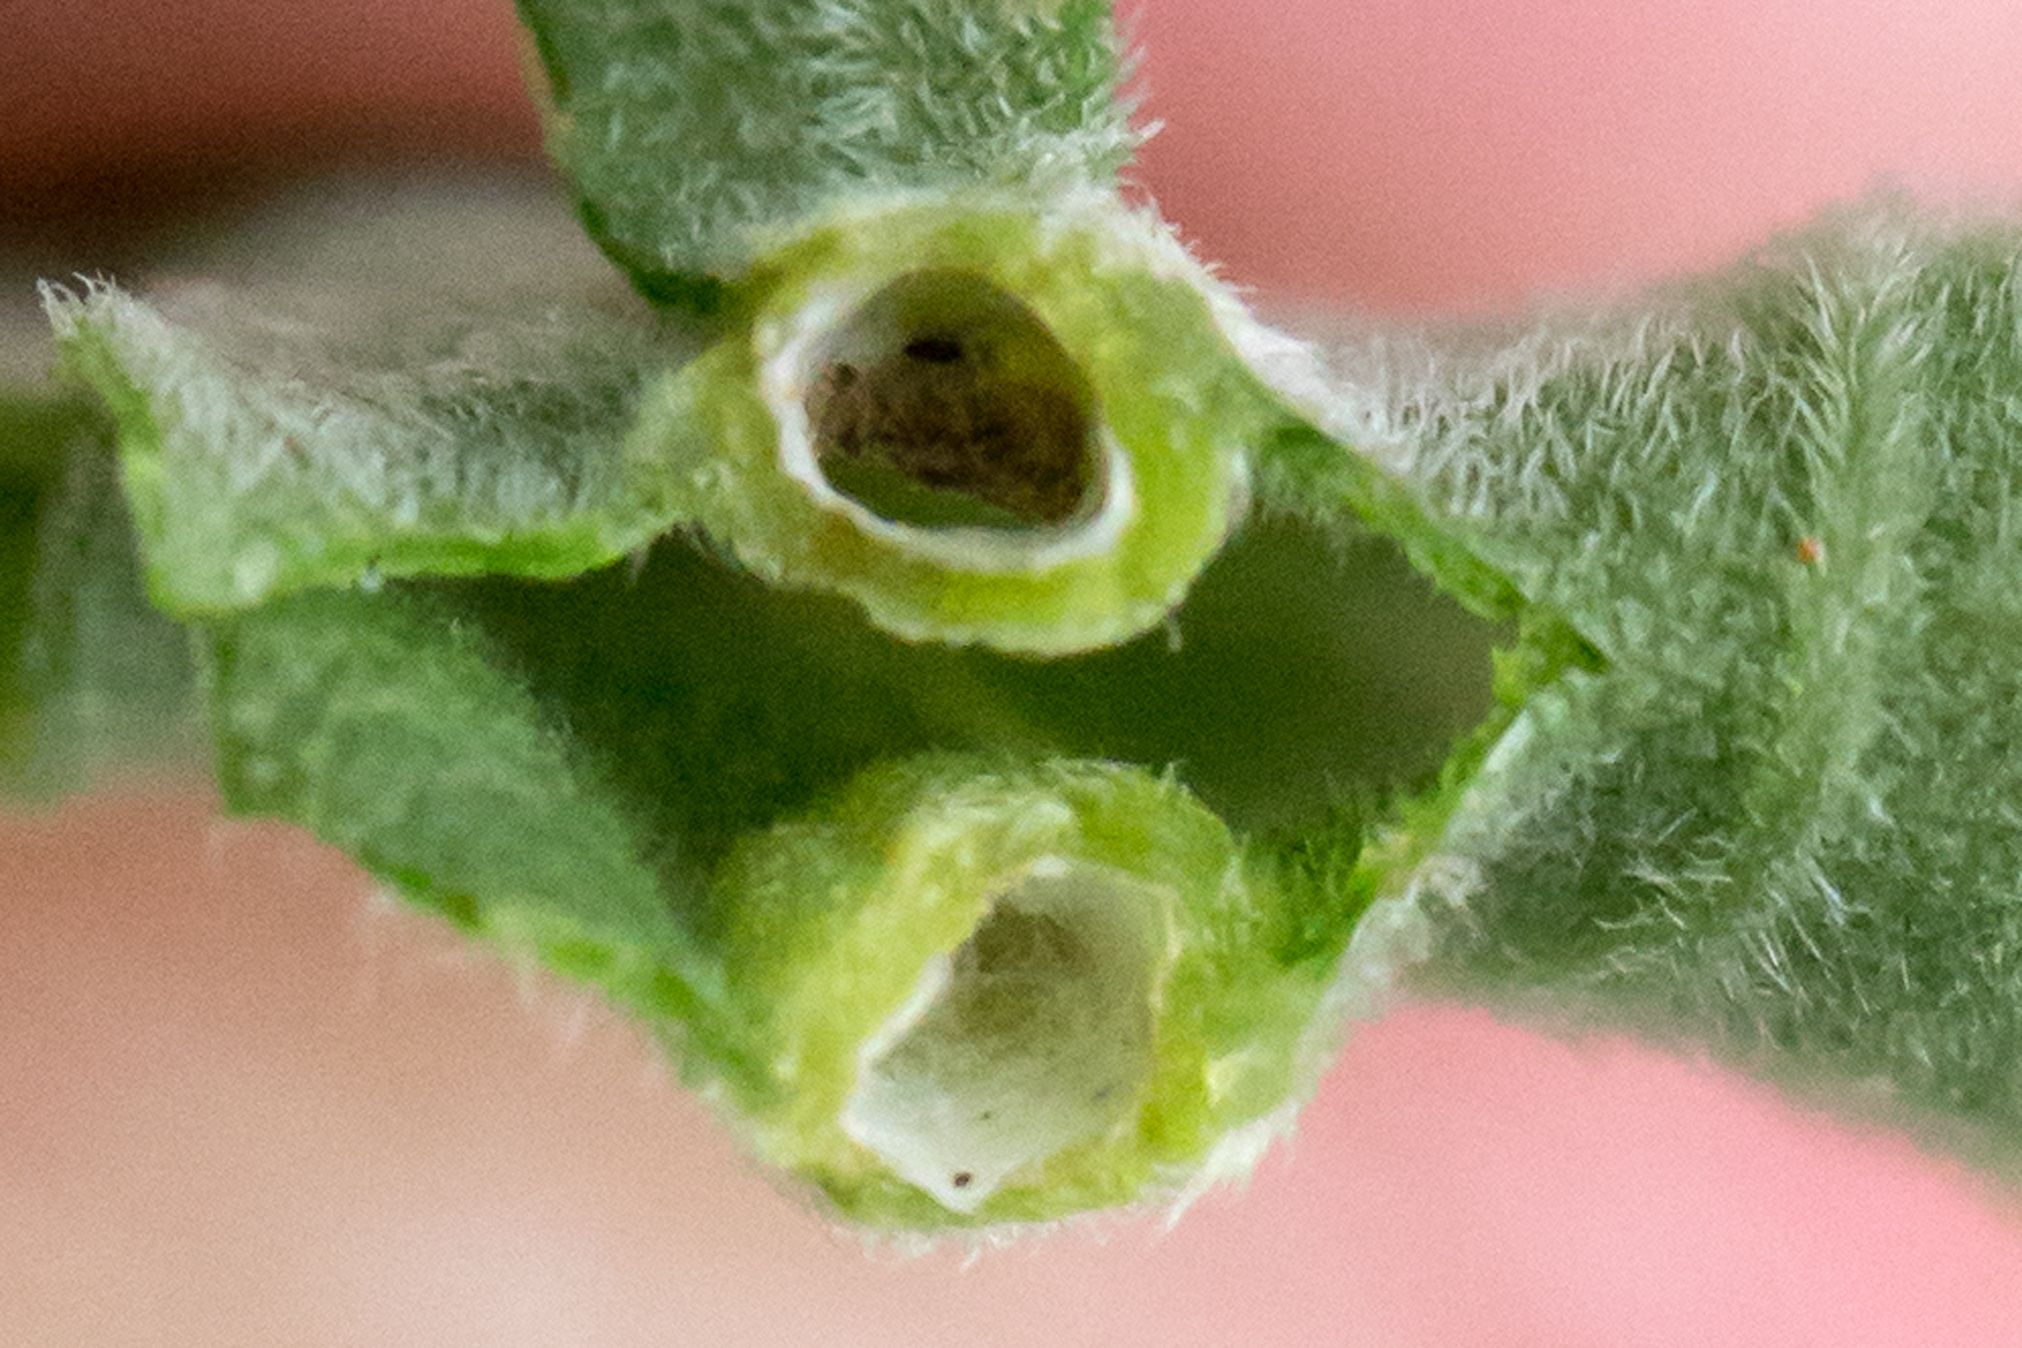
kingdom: Animalia
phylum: Arthropoda
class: Insecta
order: Diptera
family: Cecidomyiidae
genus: Asphondylia
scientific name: Asphondylia solidaginis
